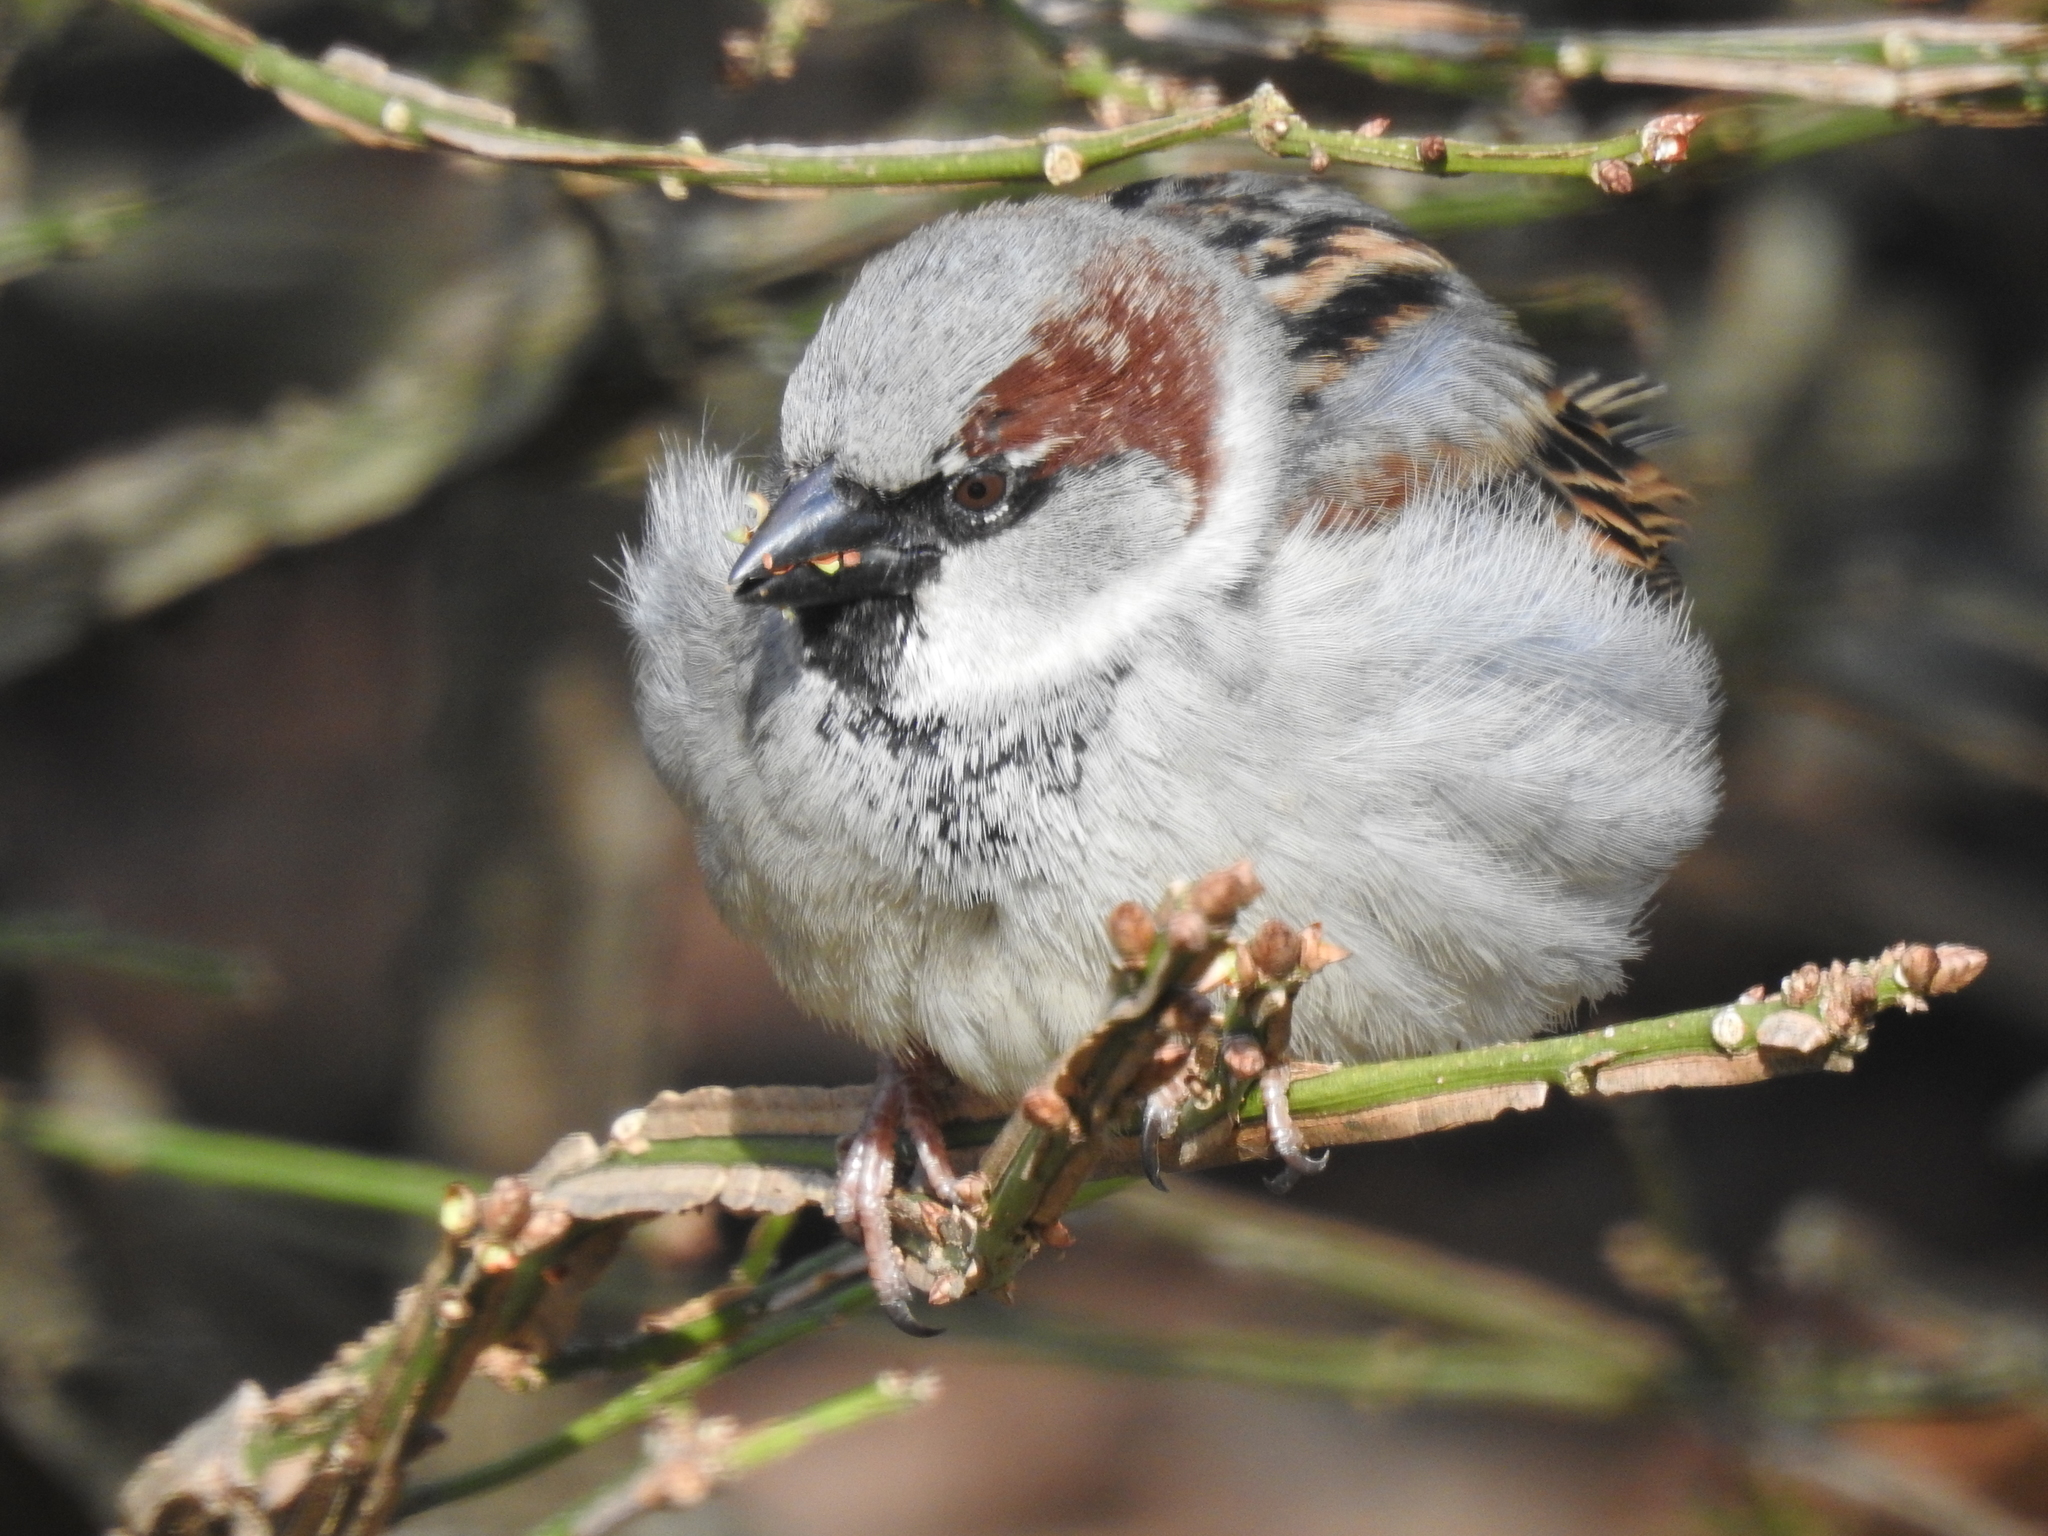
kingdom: Animalia
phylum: Chordata
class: Aves
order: Passeriformes
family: Passeridae
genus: Passer
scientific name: Passer domesticus
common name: House sparrow
